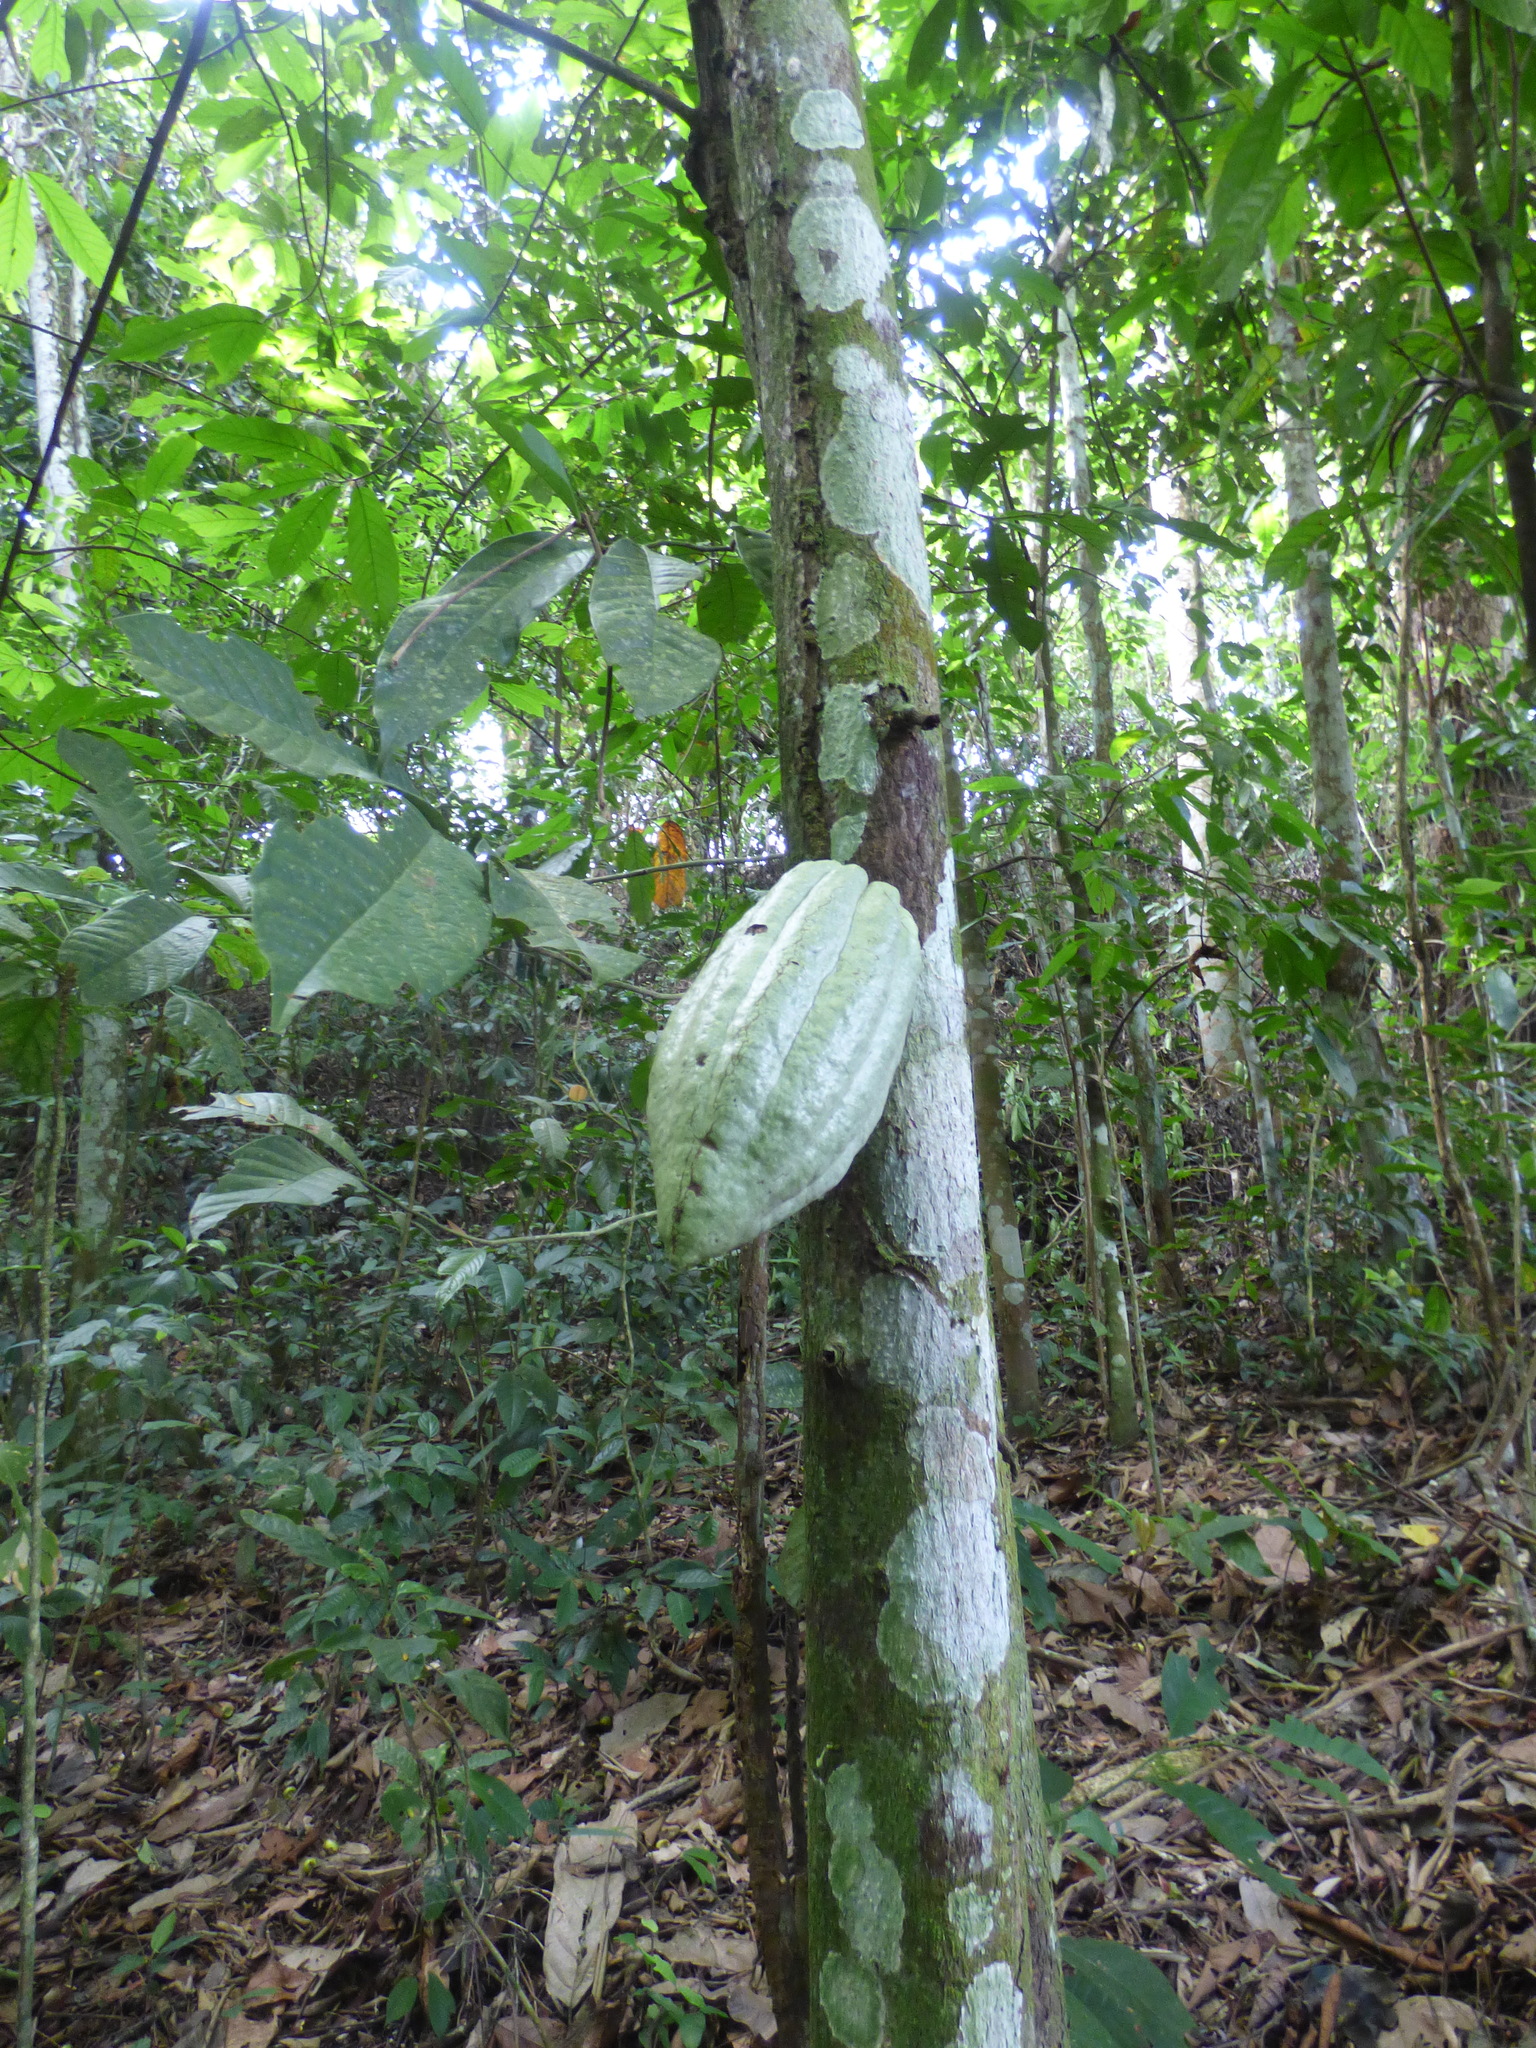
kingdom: Plantae
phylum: Tracheophyta
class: Magnoliopsida
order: Malvales
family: Malvaceae
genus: Theobroma
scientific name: Theobroma cacao
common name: Cocoa
